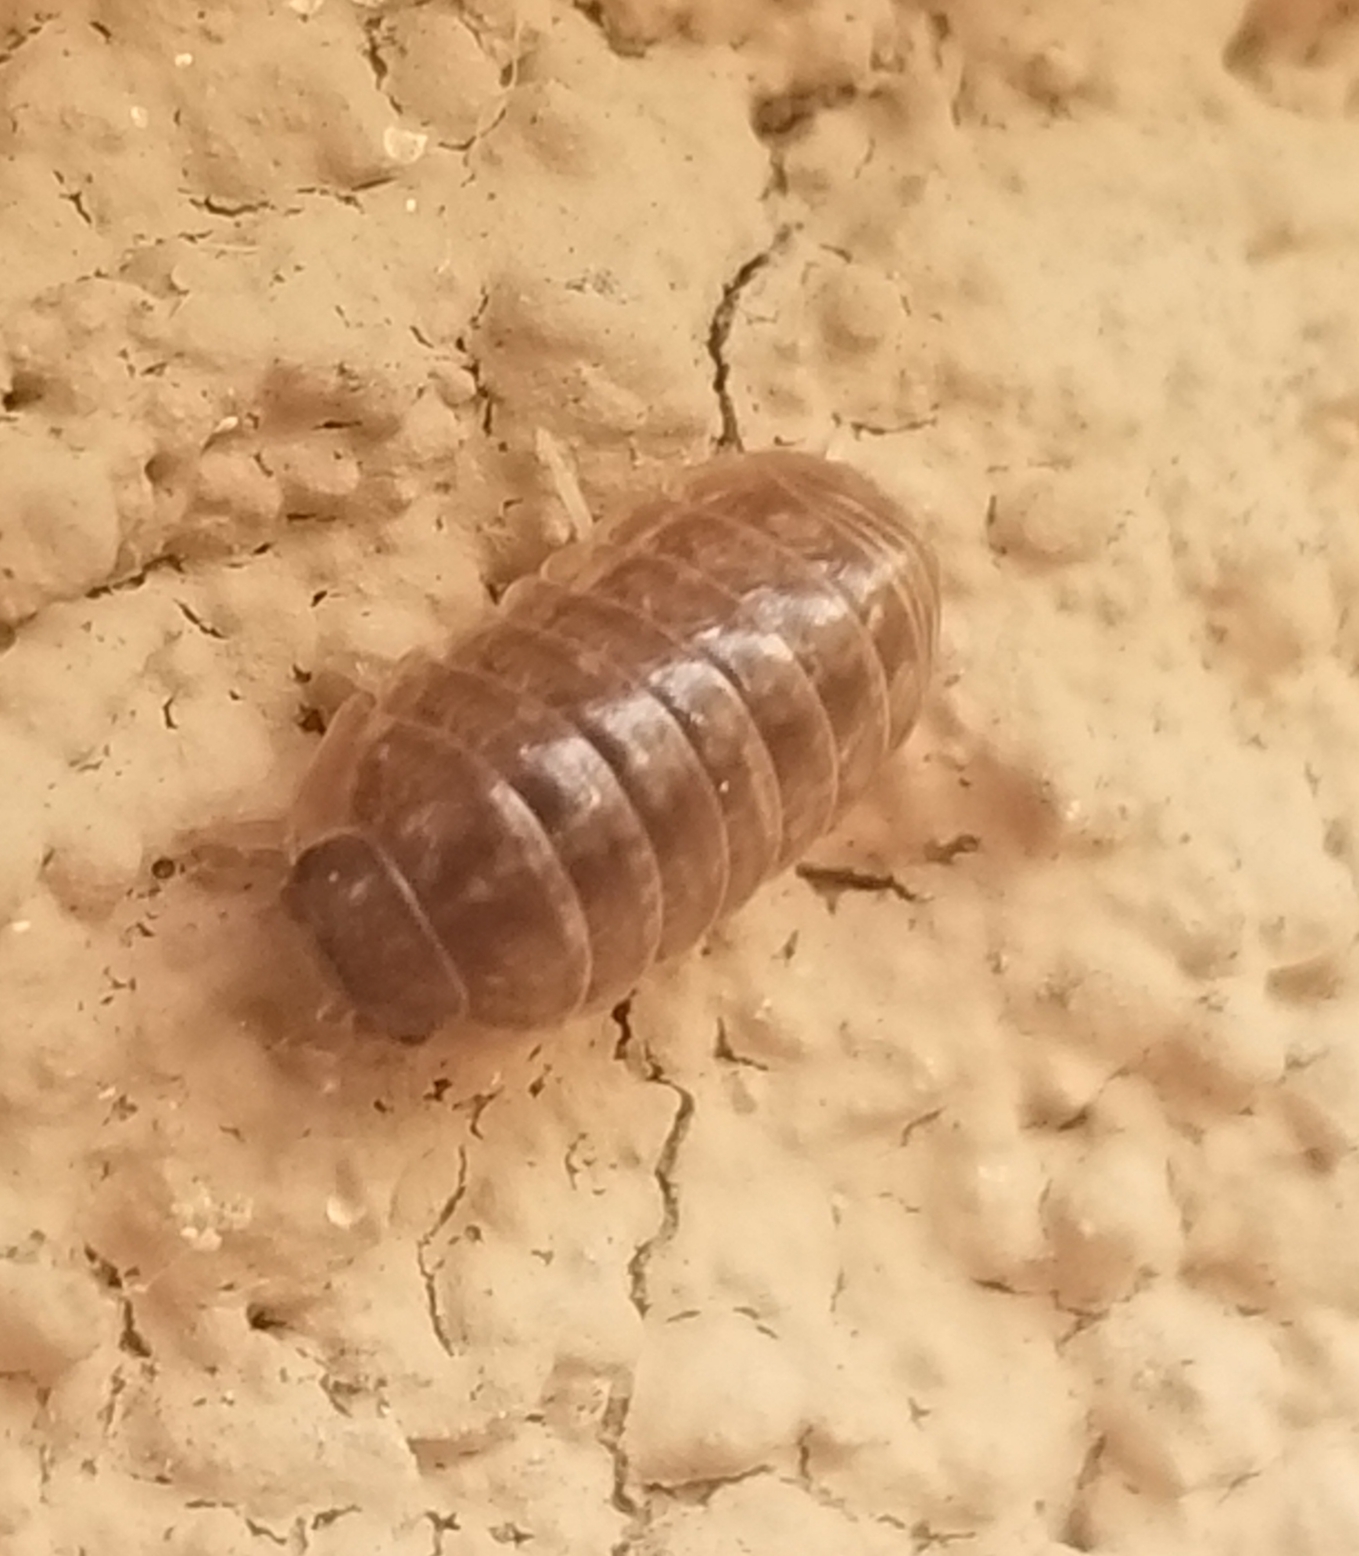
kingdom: Animalia
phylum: Arthropoda
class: Malacostraca
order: Isopoda
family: Armadillidiidae
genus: Armadillidium
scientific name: Armadillidium vulgare
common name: Common pill woodlouse
